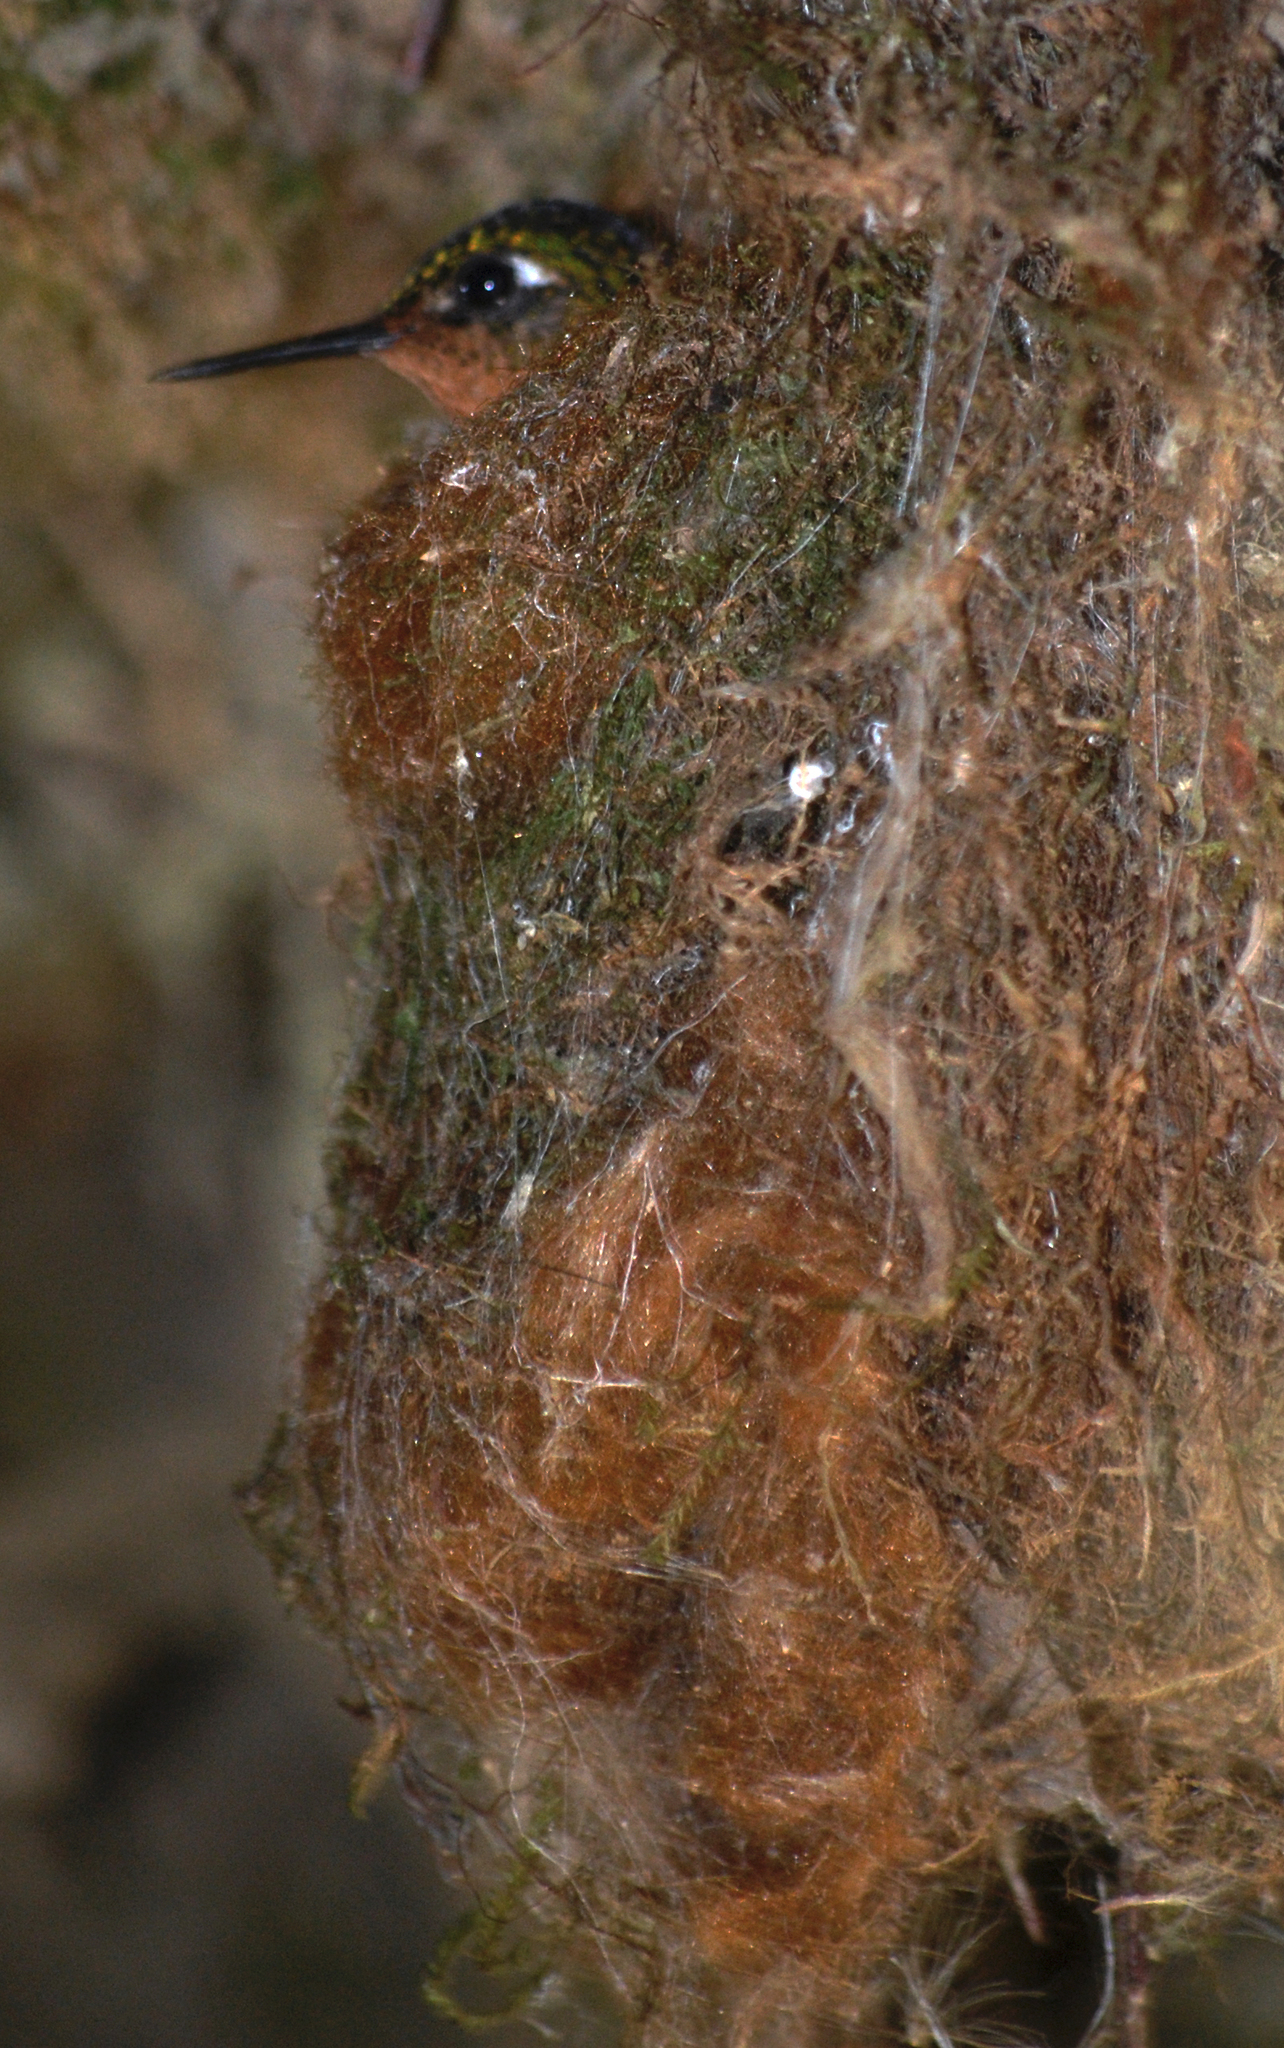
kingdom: Animalia
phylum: Chordata
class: Aves
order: Apodiformes
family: Trochilidae
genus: Metallura
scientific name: Metallura tyrianthina
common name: Tyrian metaltail
